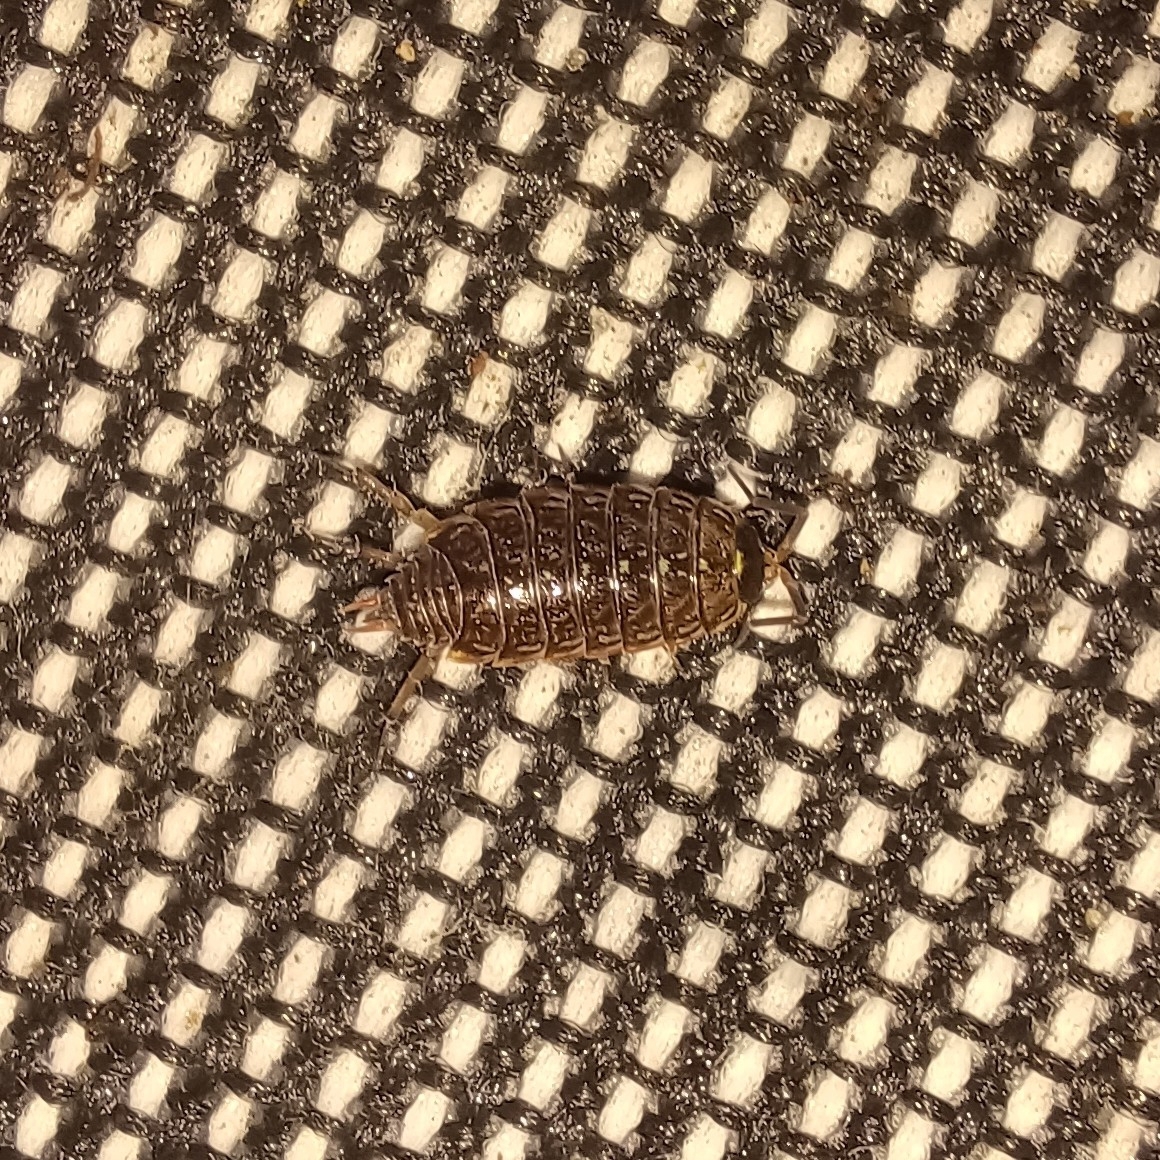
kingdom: Animalia
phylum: Arthropoda
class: Malacostraca
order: Isopoda
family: Philosciidae
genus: Philoscia
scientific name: Philoscia muscorum
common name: Common striped woodlouse
